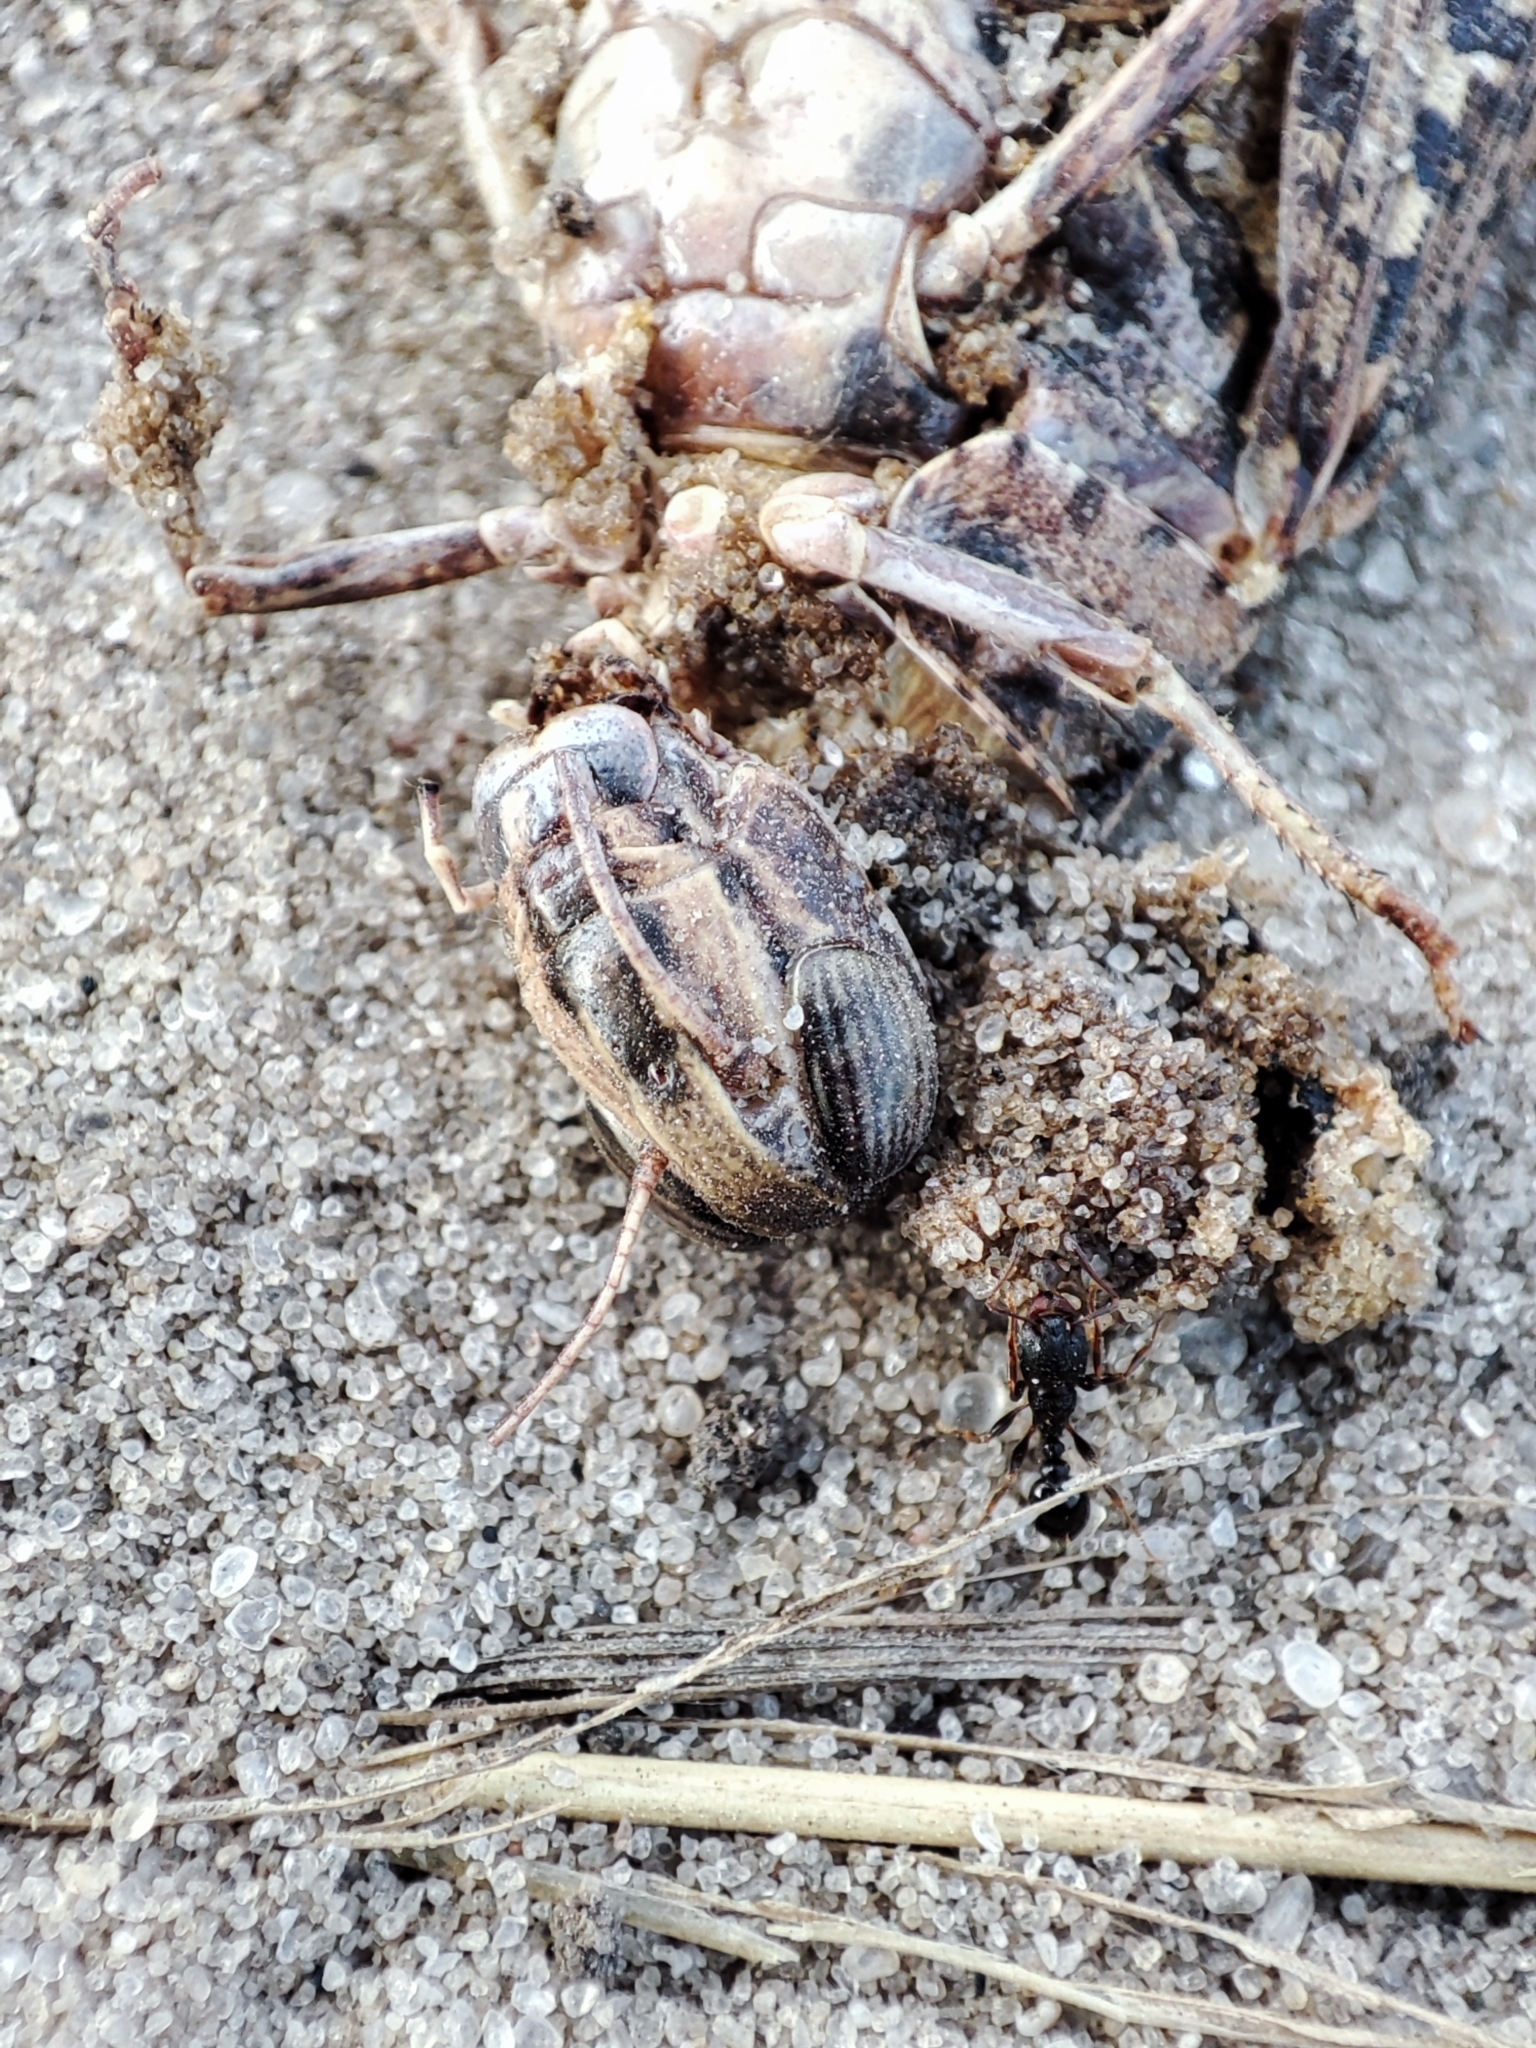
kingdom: Animalia
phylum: Arthropoda
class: Insecta
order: Orthoptera
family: Acrididae
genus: Calliptamus
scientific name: Calliptamus italicus
